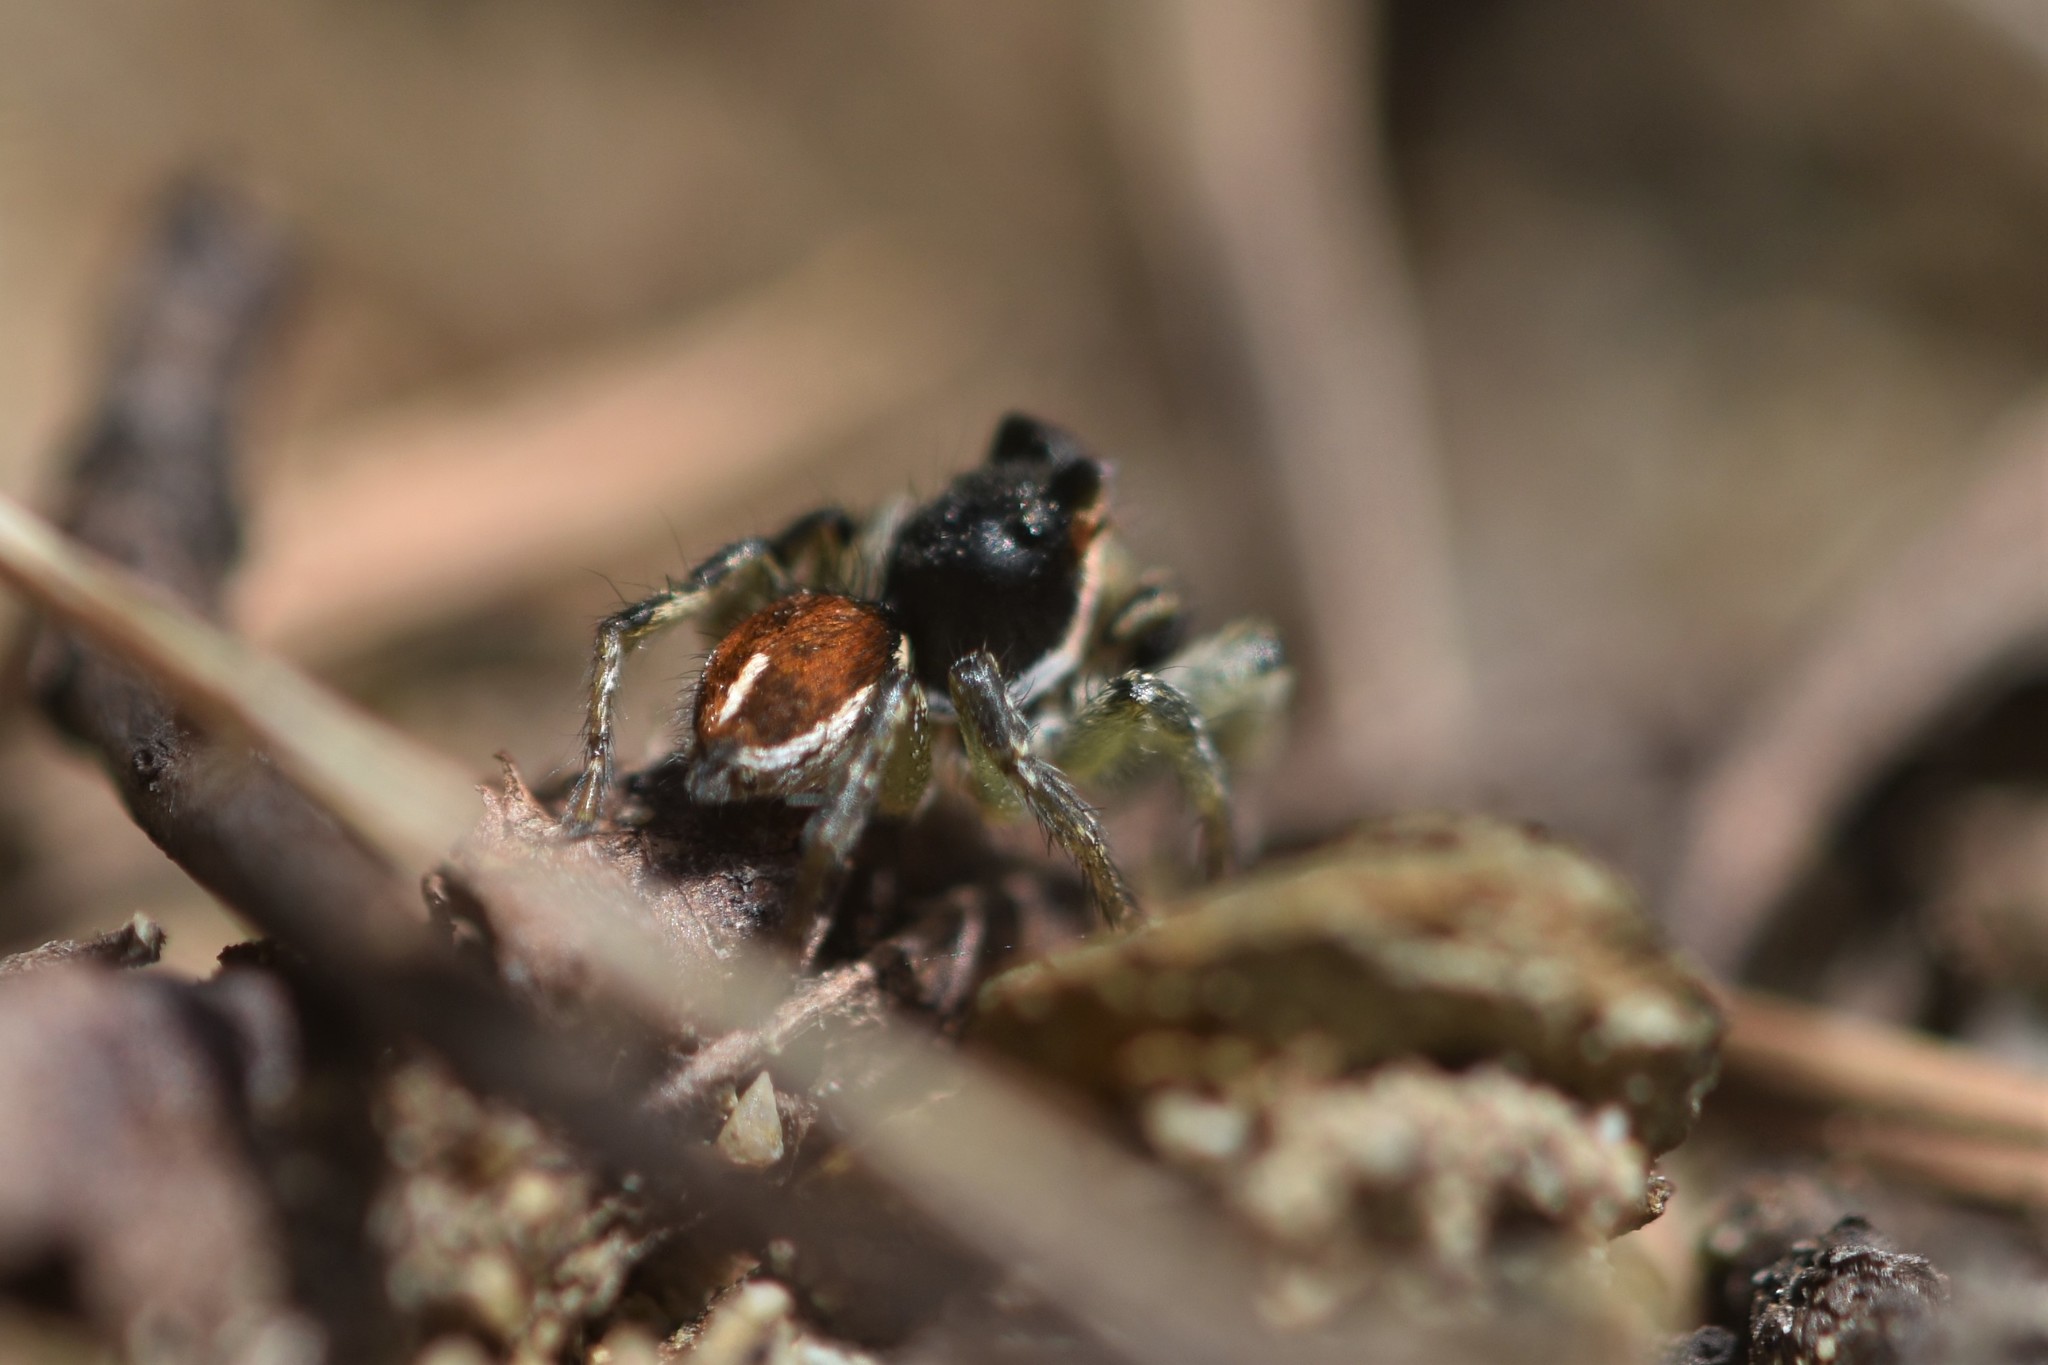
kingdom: Animalia
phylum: Arthropoda
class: Arachnida
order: Araneae
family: Salticidae
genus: Habronattus
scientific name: Habronattus ophrys
